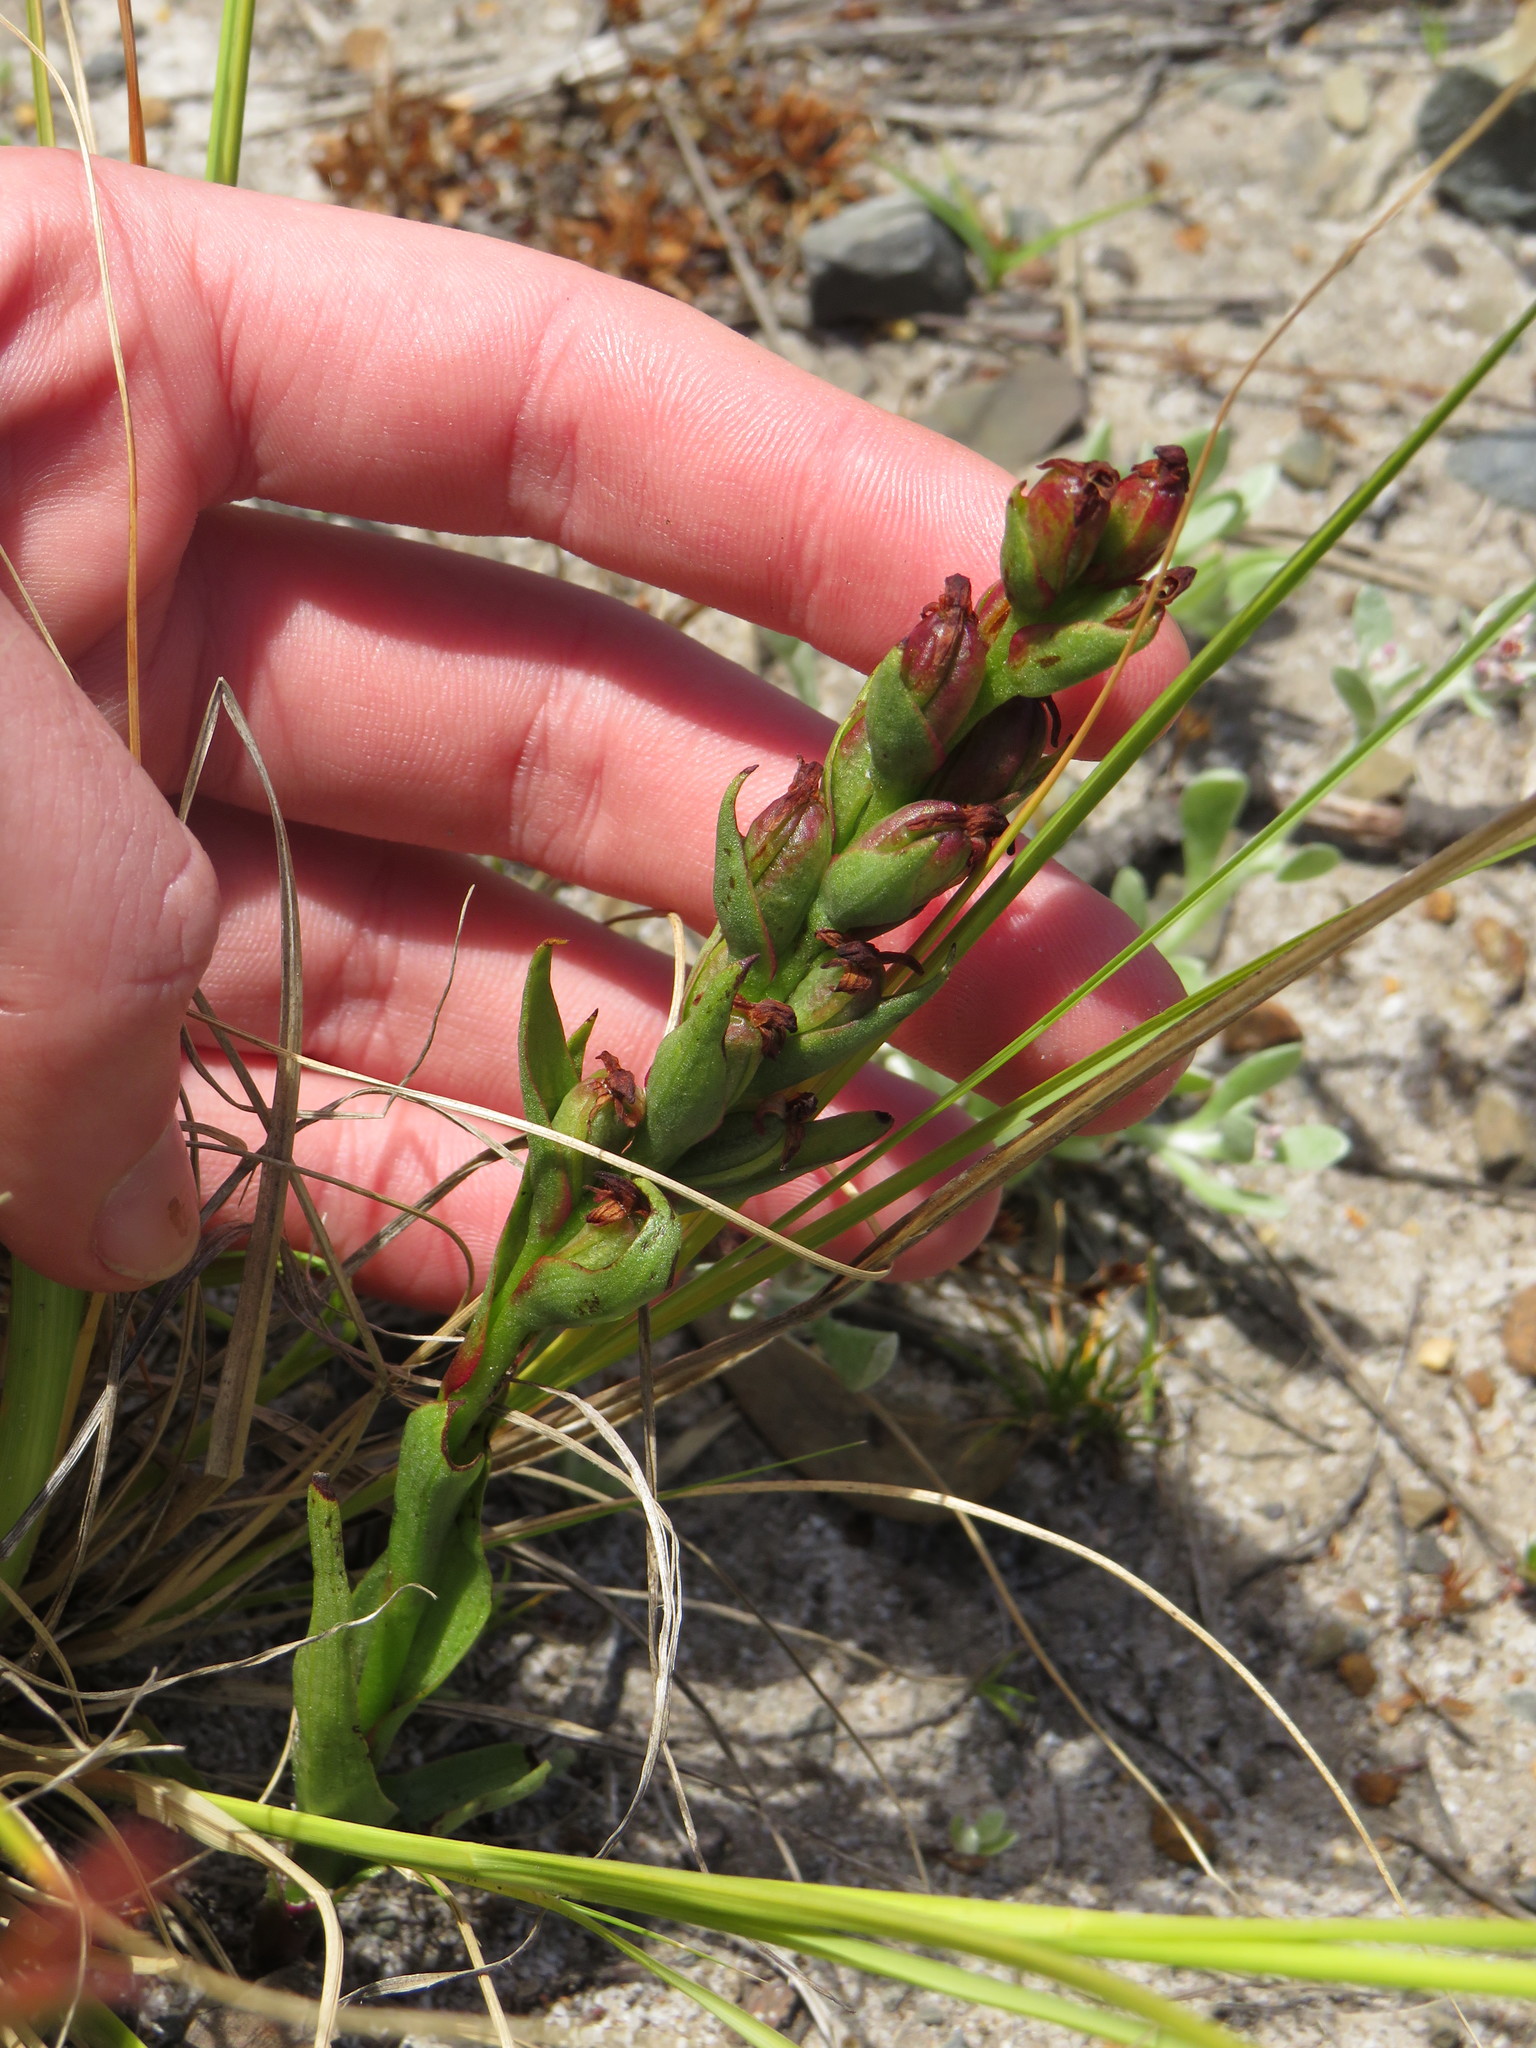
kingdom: Plantae
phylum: Tracheophyta
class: Liliopsida
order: Asparagales
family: Orchidaceae
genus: Disa
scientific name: Disa bracteata
